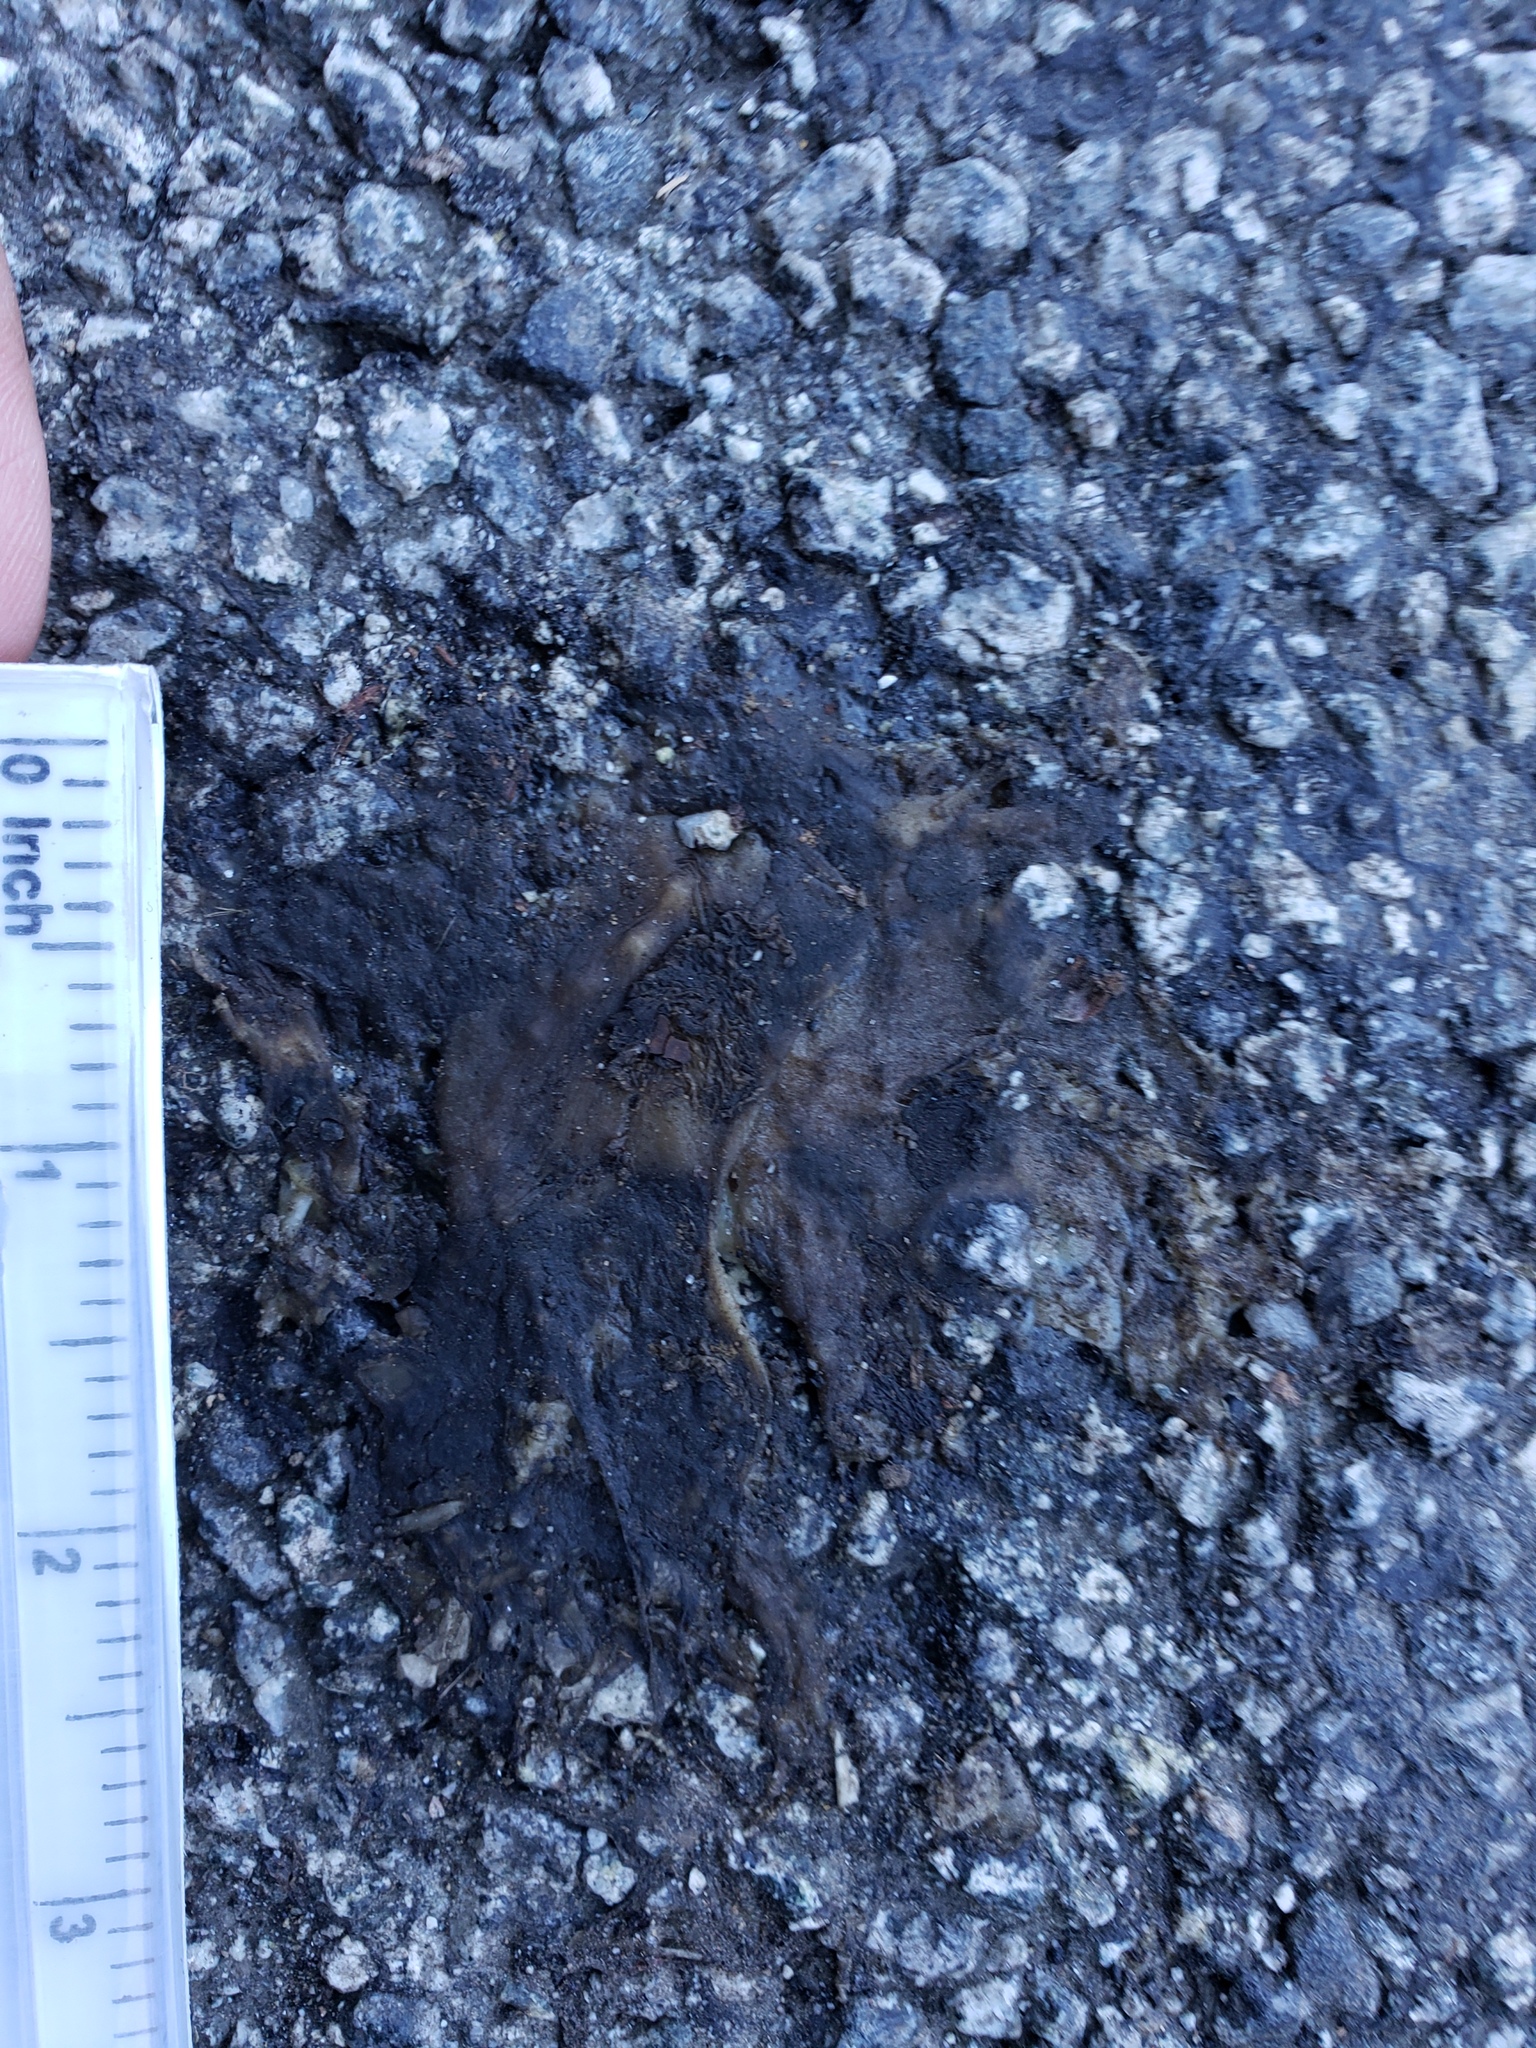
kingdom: Animalia
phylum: Chordata
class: Amphibia
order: Caudata
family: Salamandridae
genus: Taricha
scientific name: Taricha
